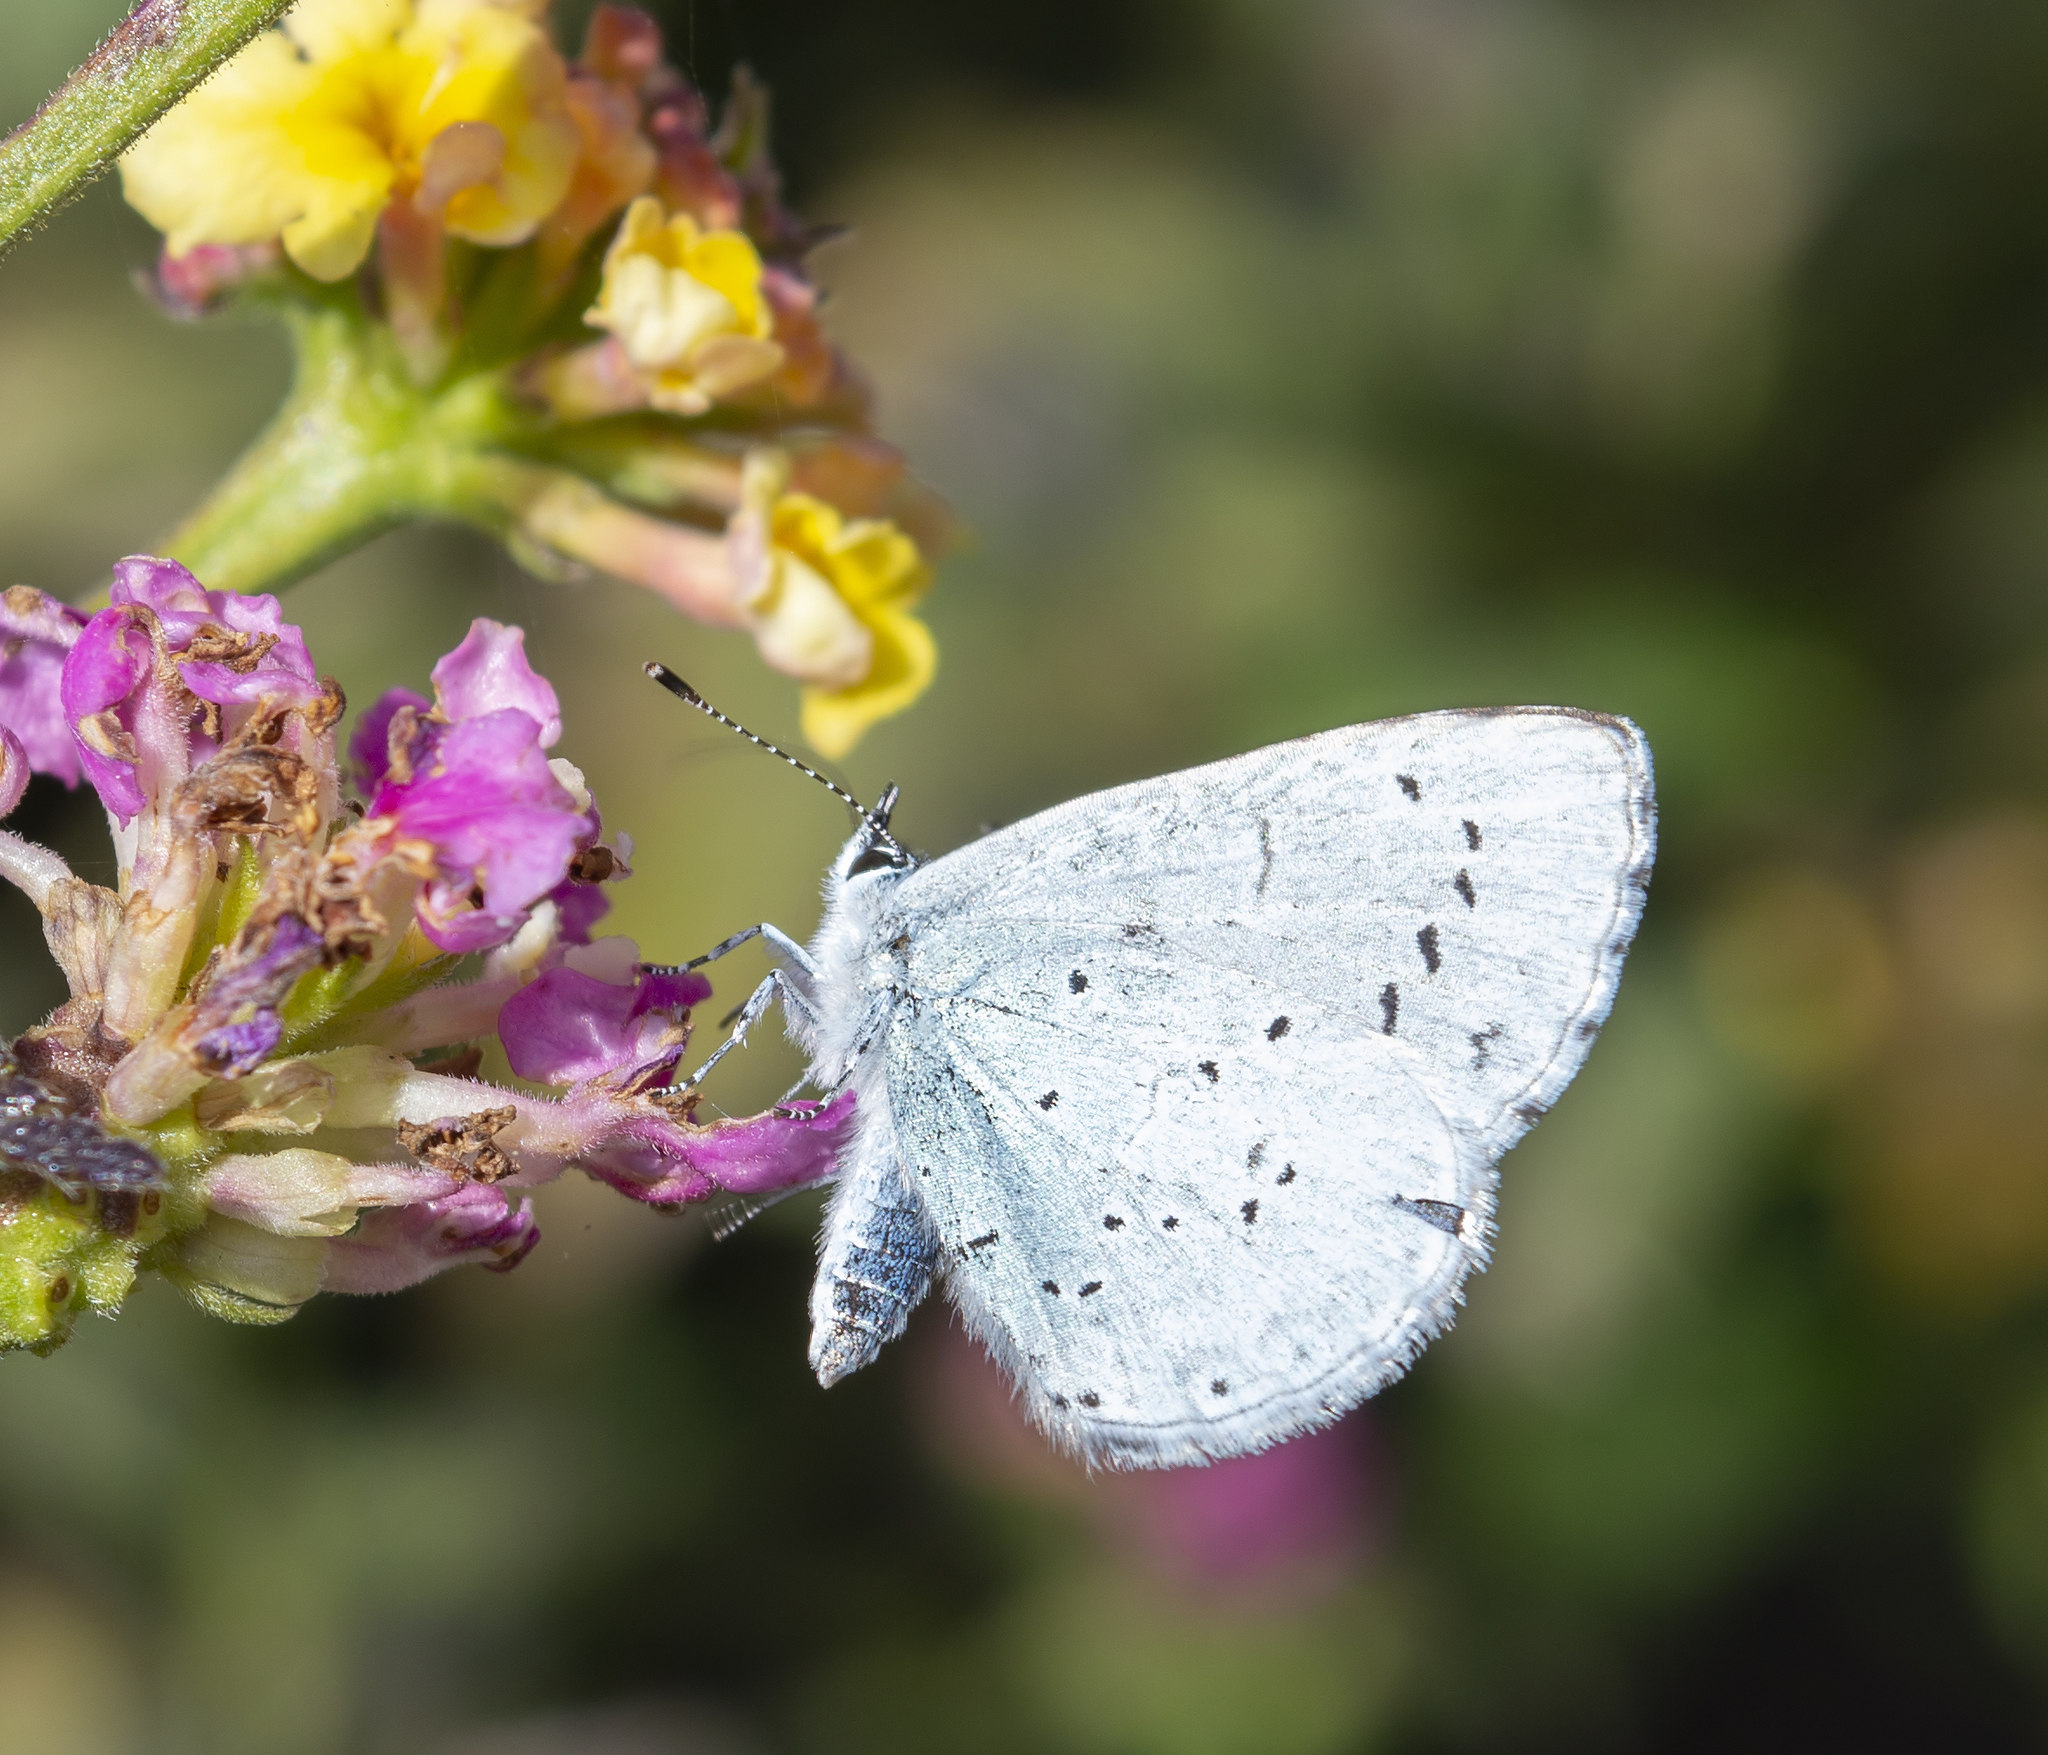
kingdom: Animalia
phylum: Arthropoda
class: Insecta
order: Lepidoptera
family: Lycaenidae
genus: Celastrina
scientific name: Celastrina argiolus
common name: Holly blue
